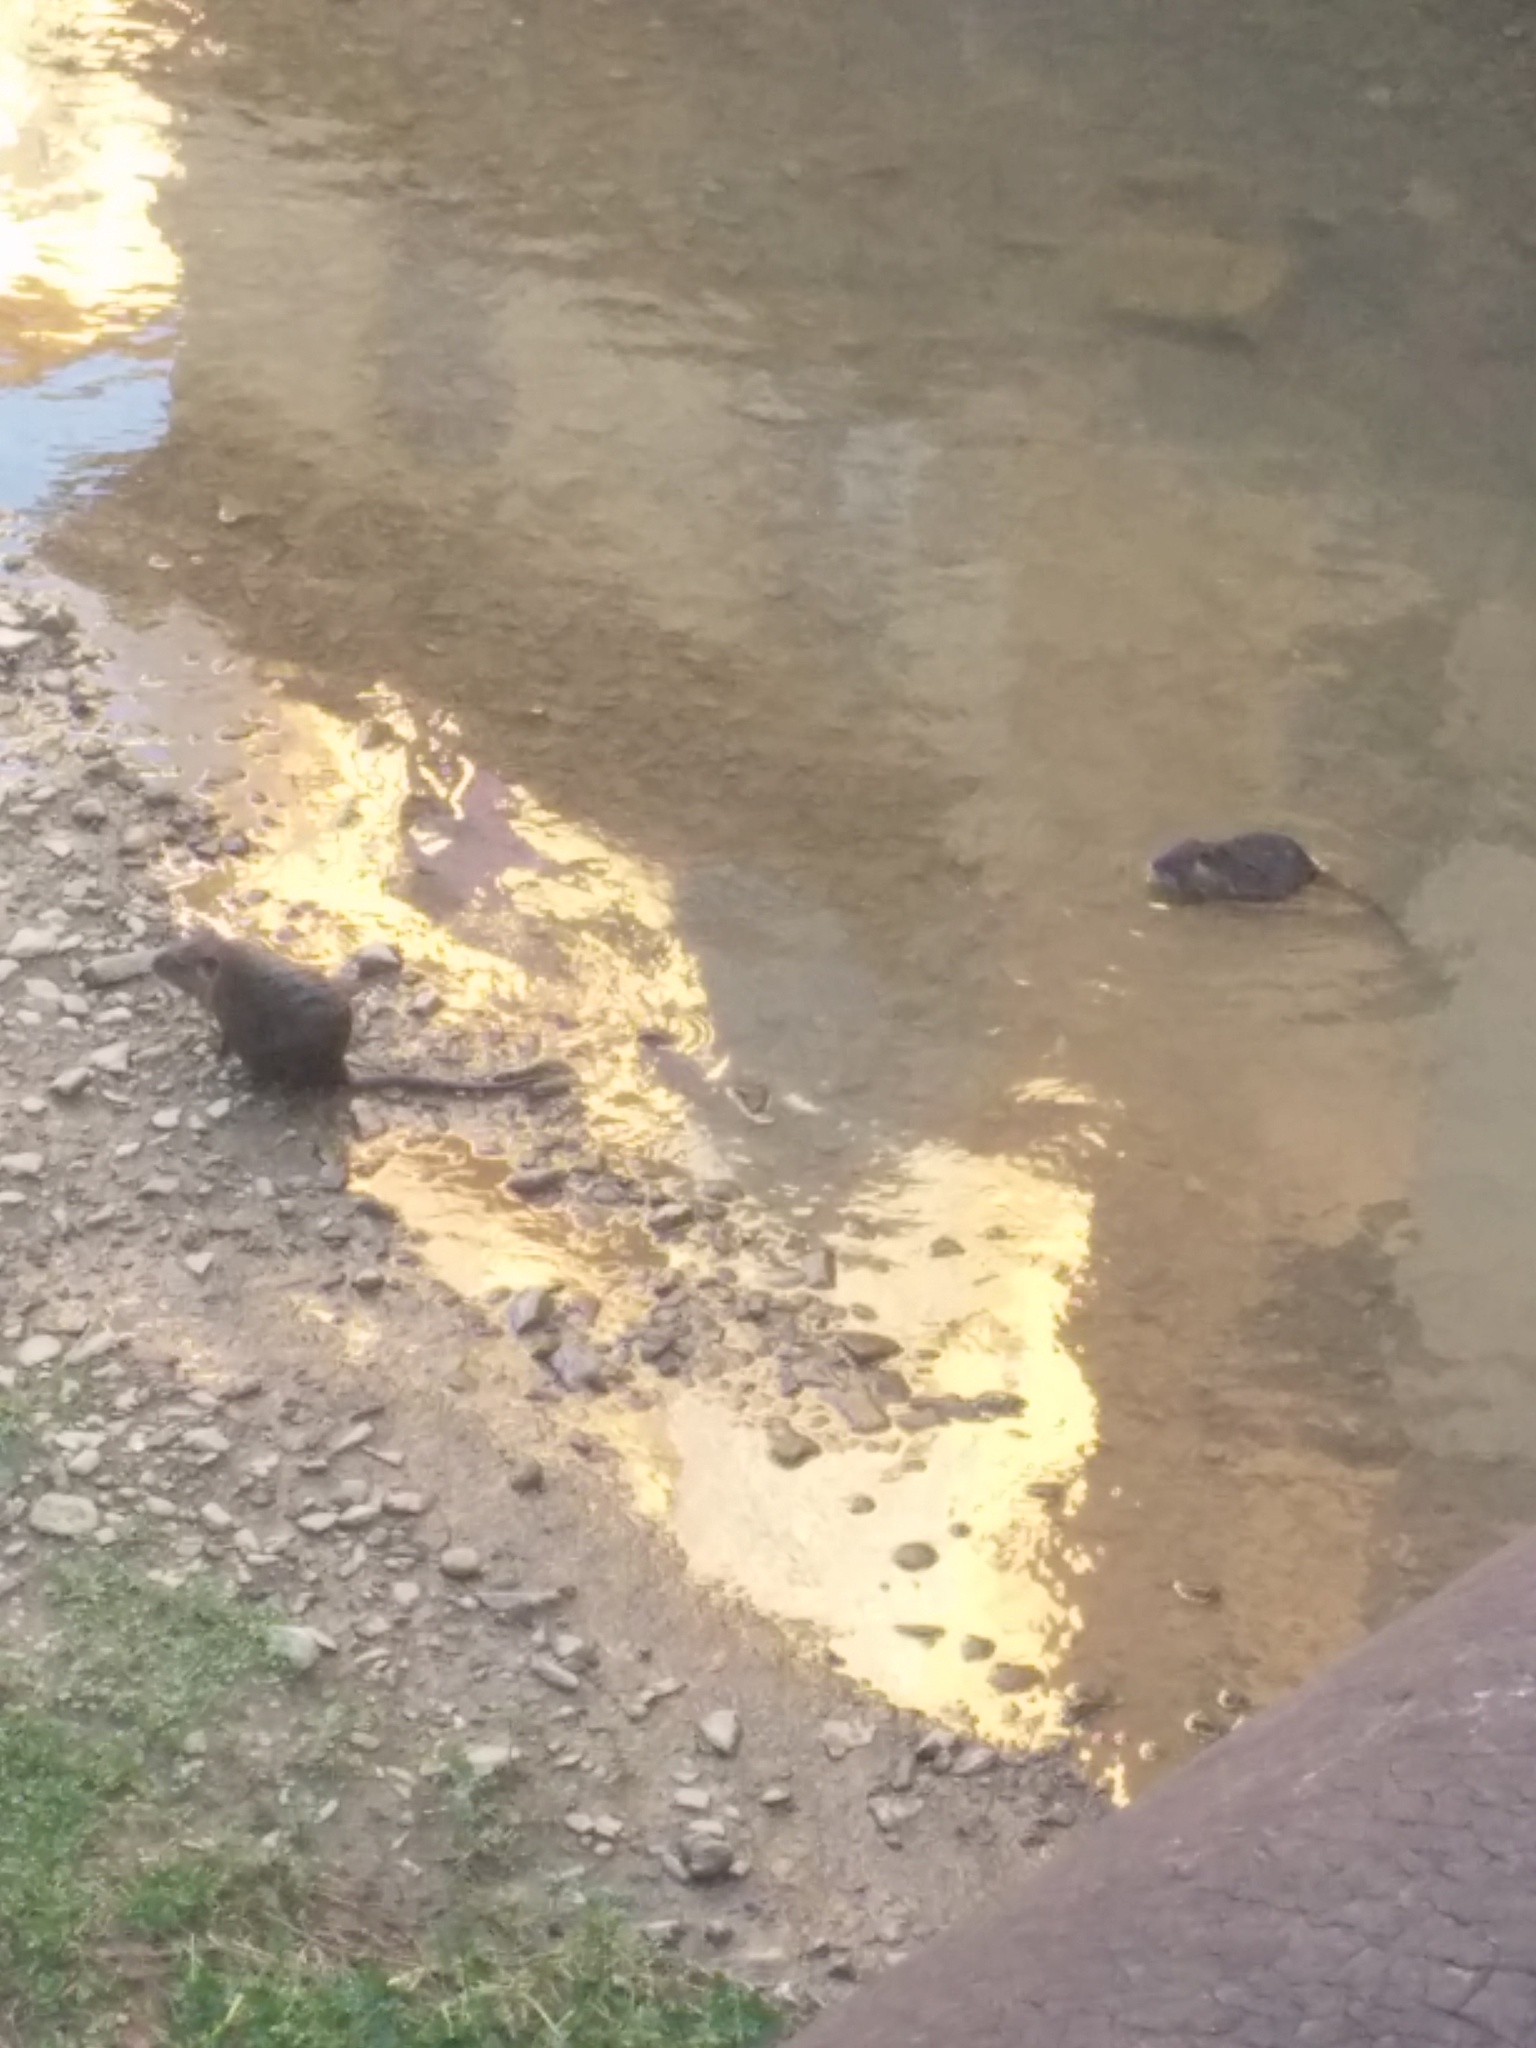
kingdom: Animalia
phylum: Chordata
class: Mammalia
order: Rodentia
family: Myocastoridae
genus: Myocastor
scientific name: Myocastor coypus
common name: Coypu
